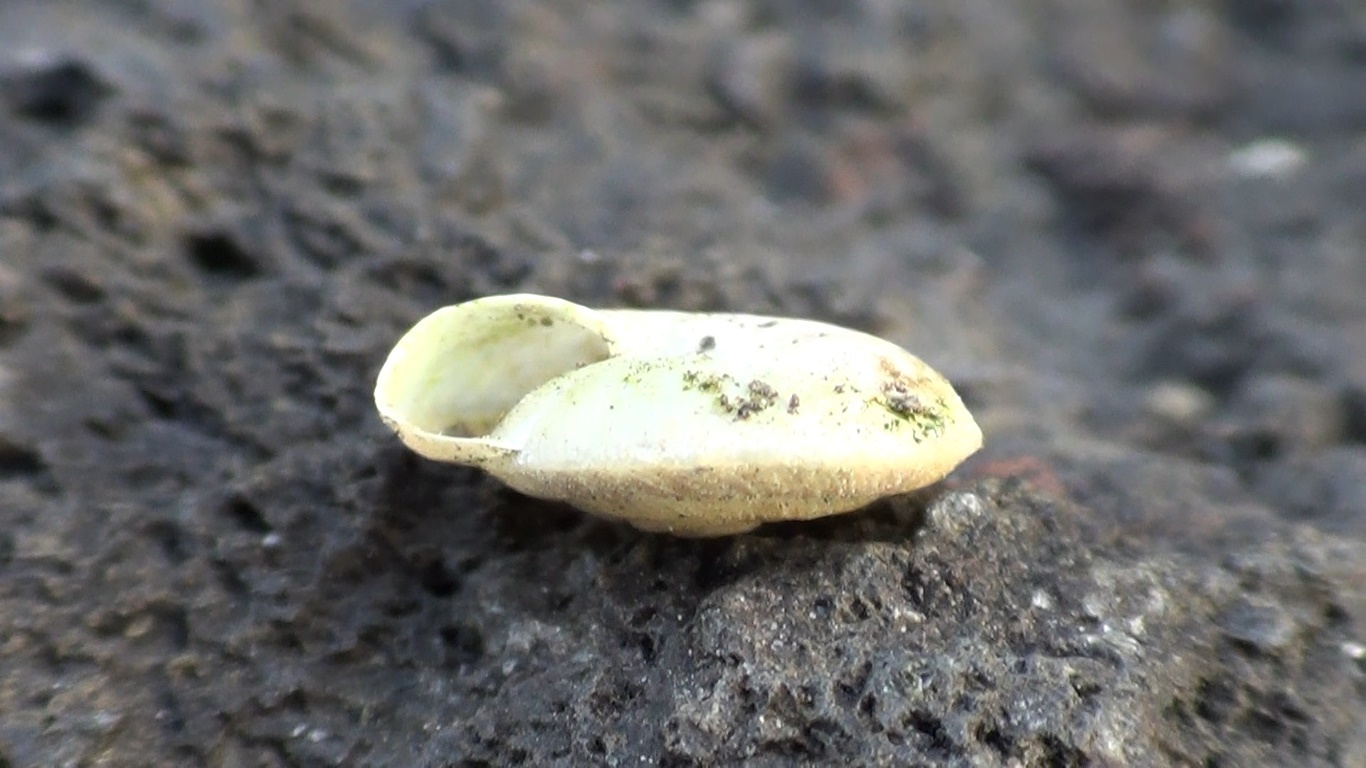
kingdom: Animalia
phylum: Mollusca
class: Gastropoda
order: Stylommatophora
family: Trissexodontidae
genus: Caracollina
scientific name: Caracollina lenticula
